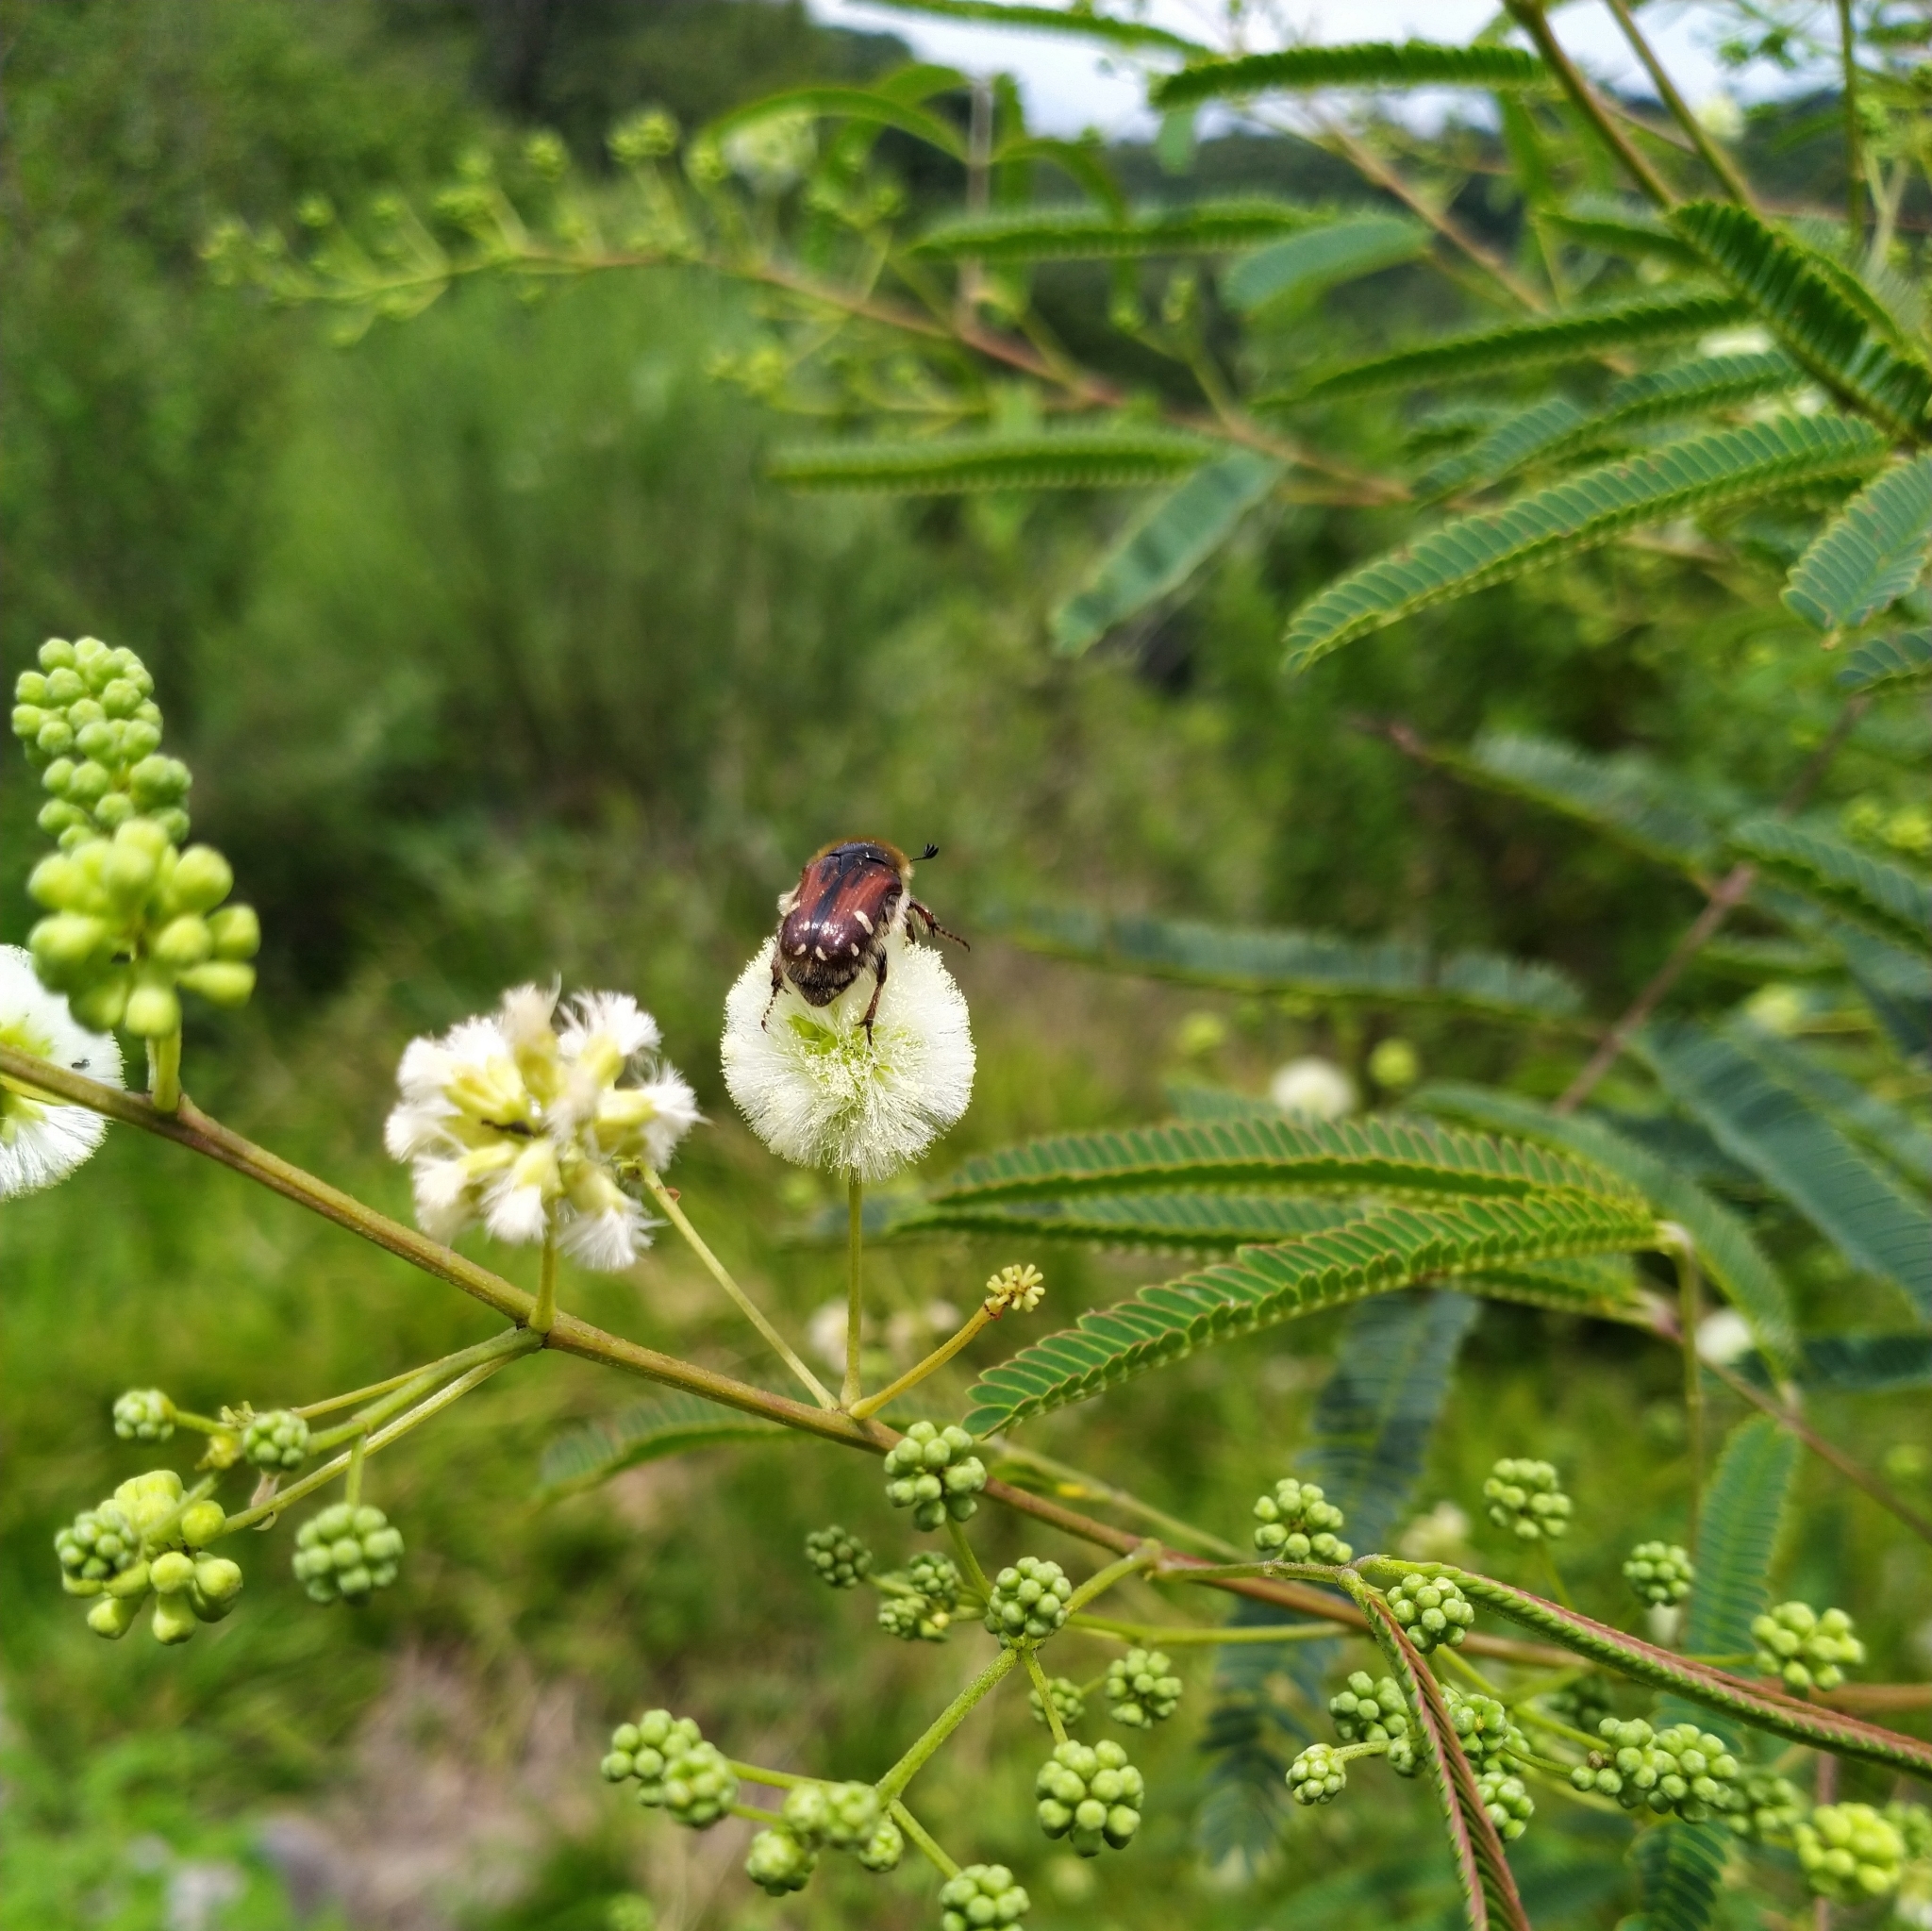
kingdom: Animalia
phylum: Arthropoda
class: Insecta
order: Coleoptera
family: Scarabaeidae
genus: Euphoria
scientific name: Euphoria pulchella
